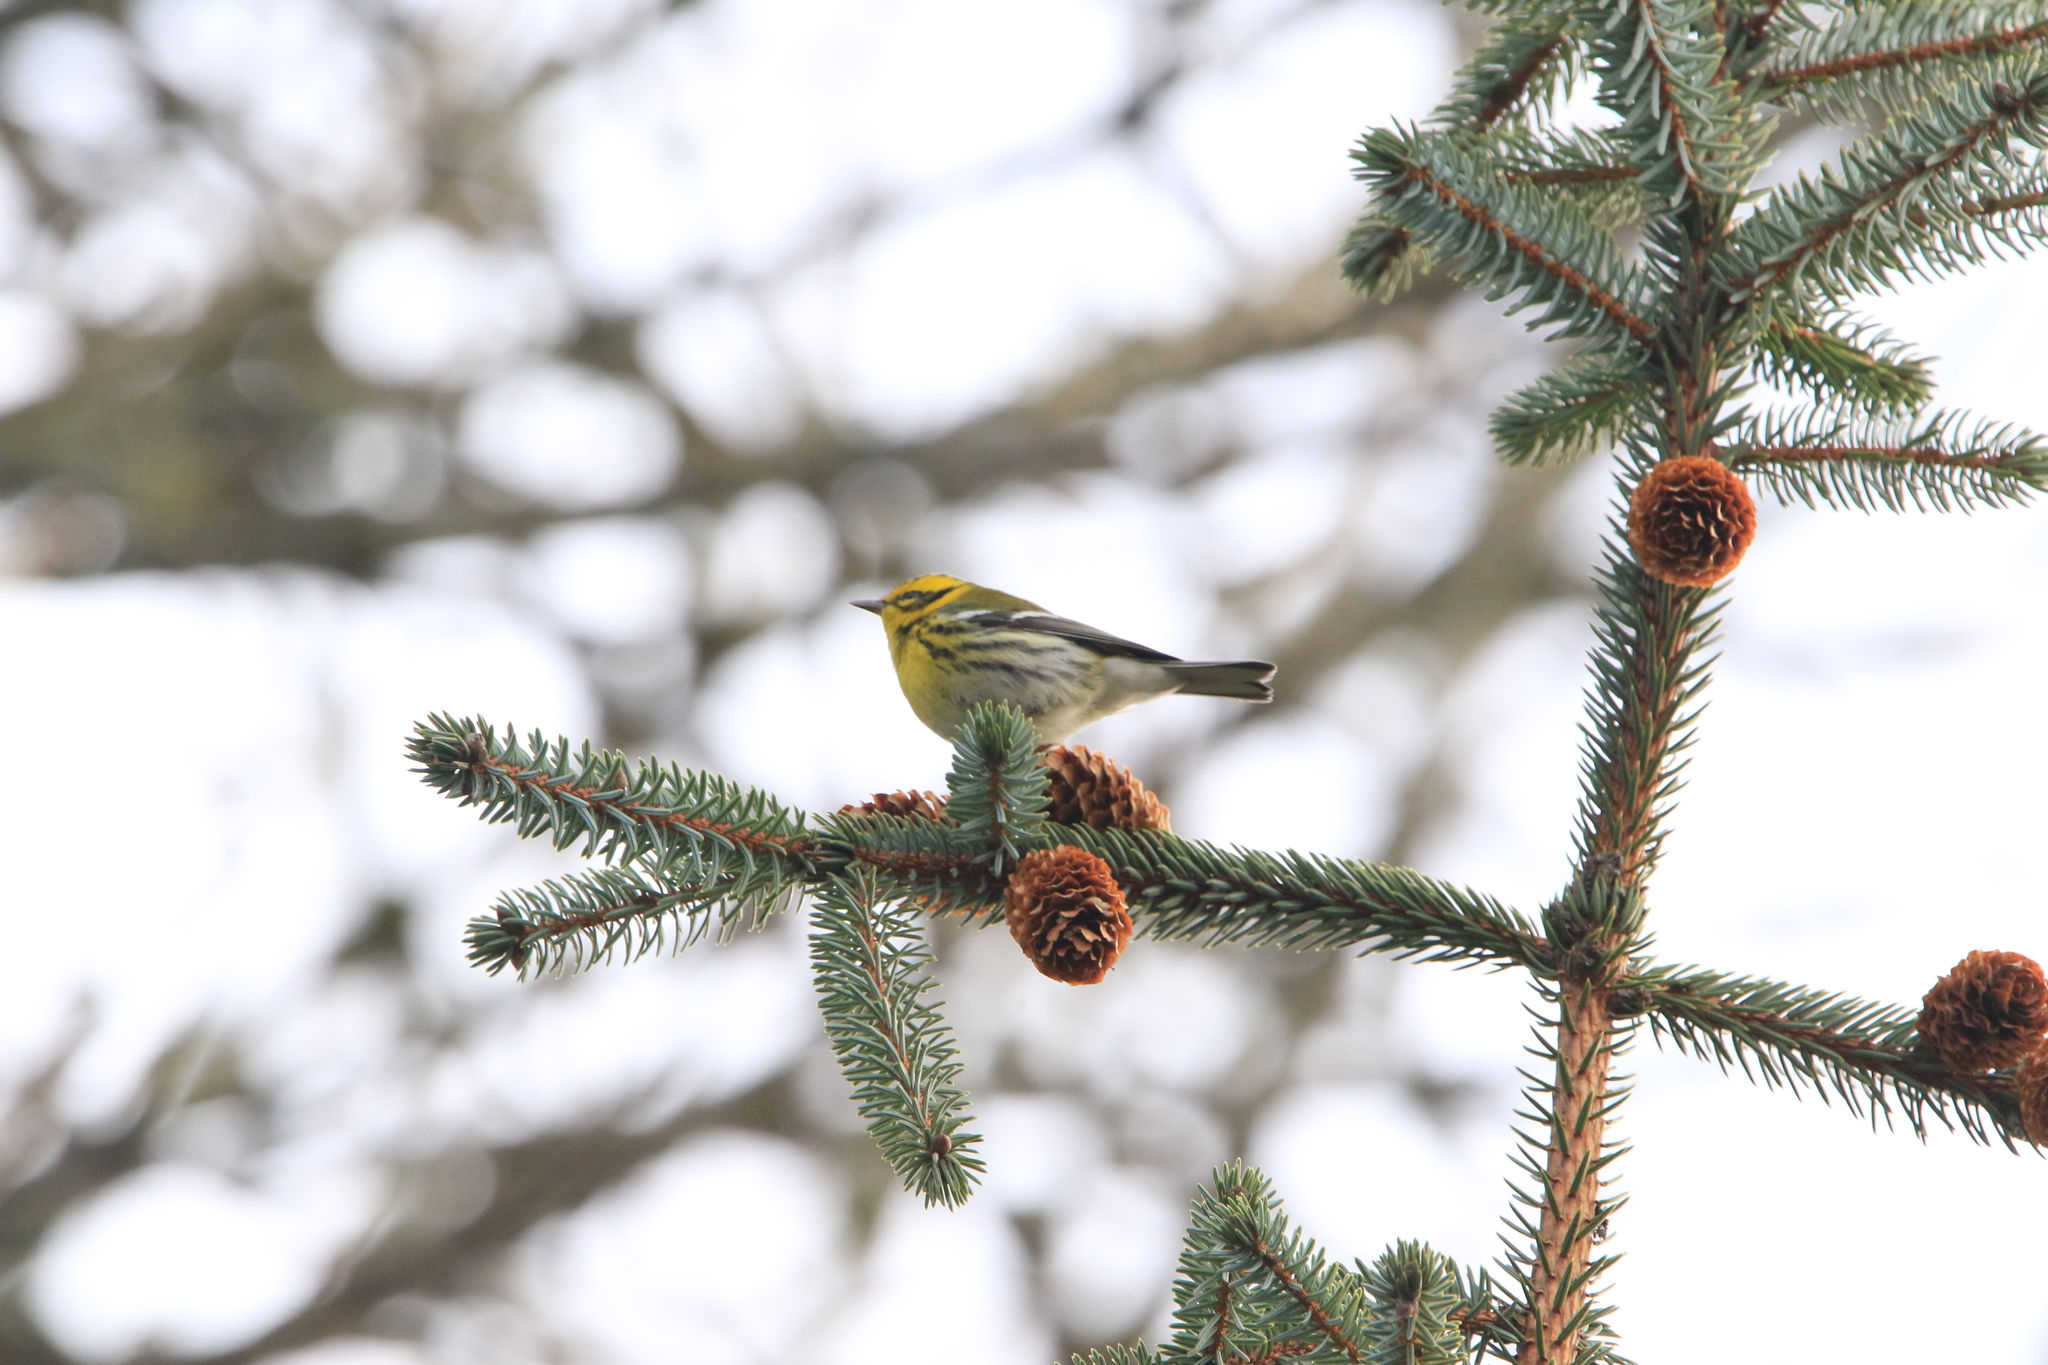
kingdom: Animalia
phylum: Chordata
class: Aves
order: Passeriformes
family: Parulidae
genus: Setophaga
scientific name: Setophaga townsendi
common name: Townsend's warbler
